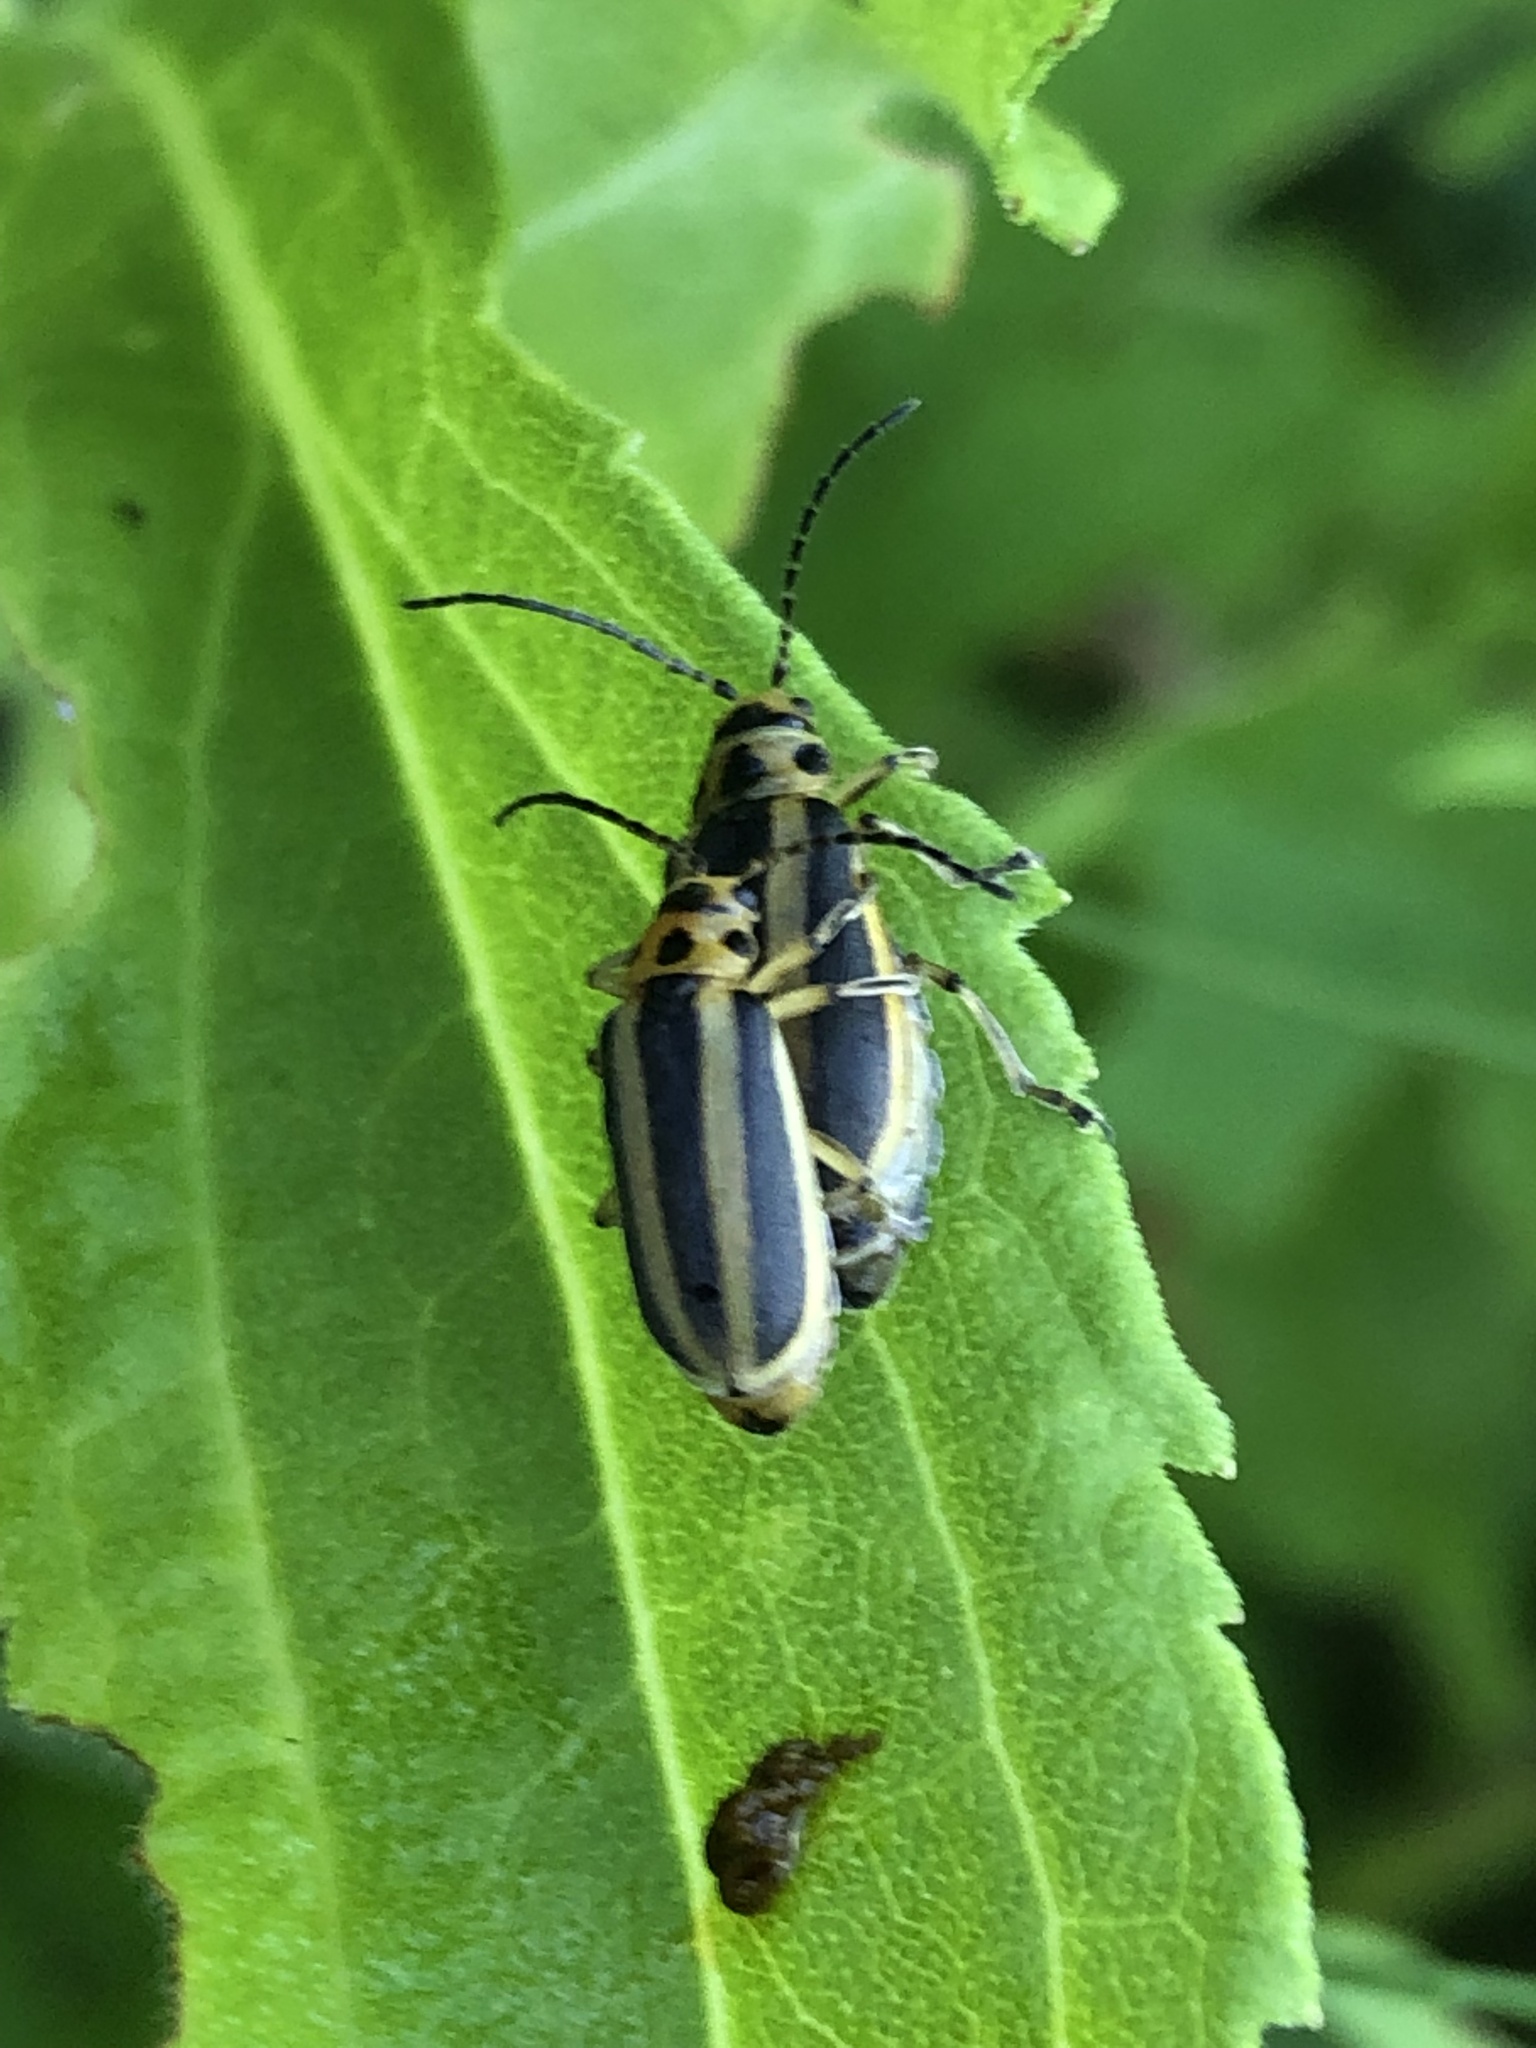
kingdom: Animalia
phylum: Arthropoda
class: Insecta
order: Coleoptera
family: Chrysomelidae
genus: Trirhabda
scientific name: Trirhabda canadensis
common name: Goldenrod leaf beetle
